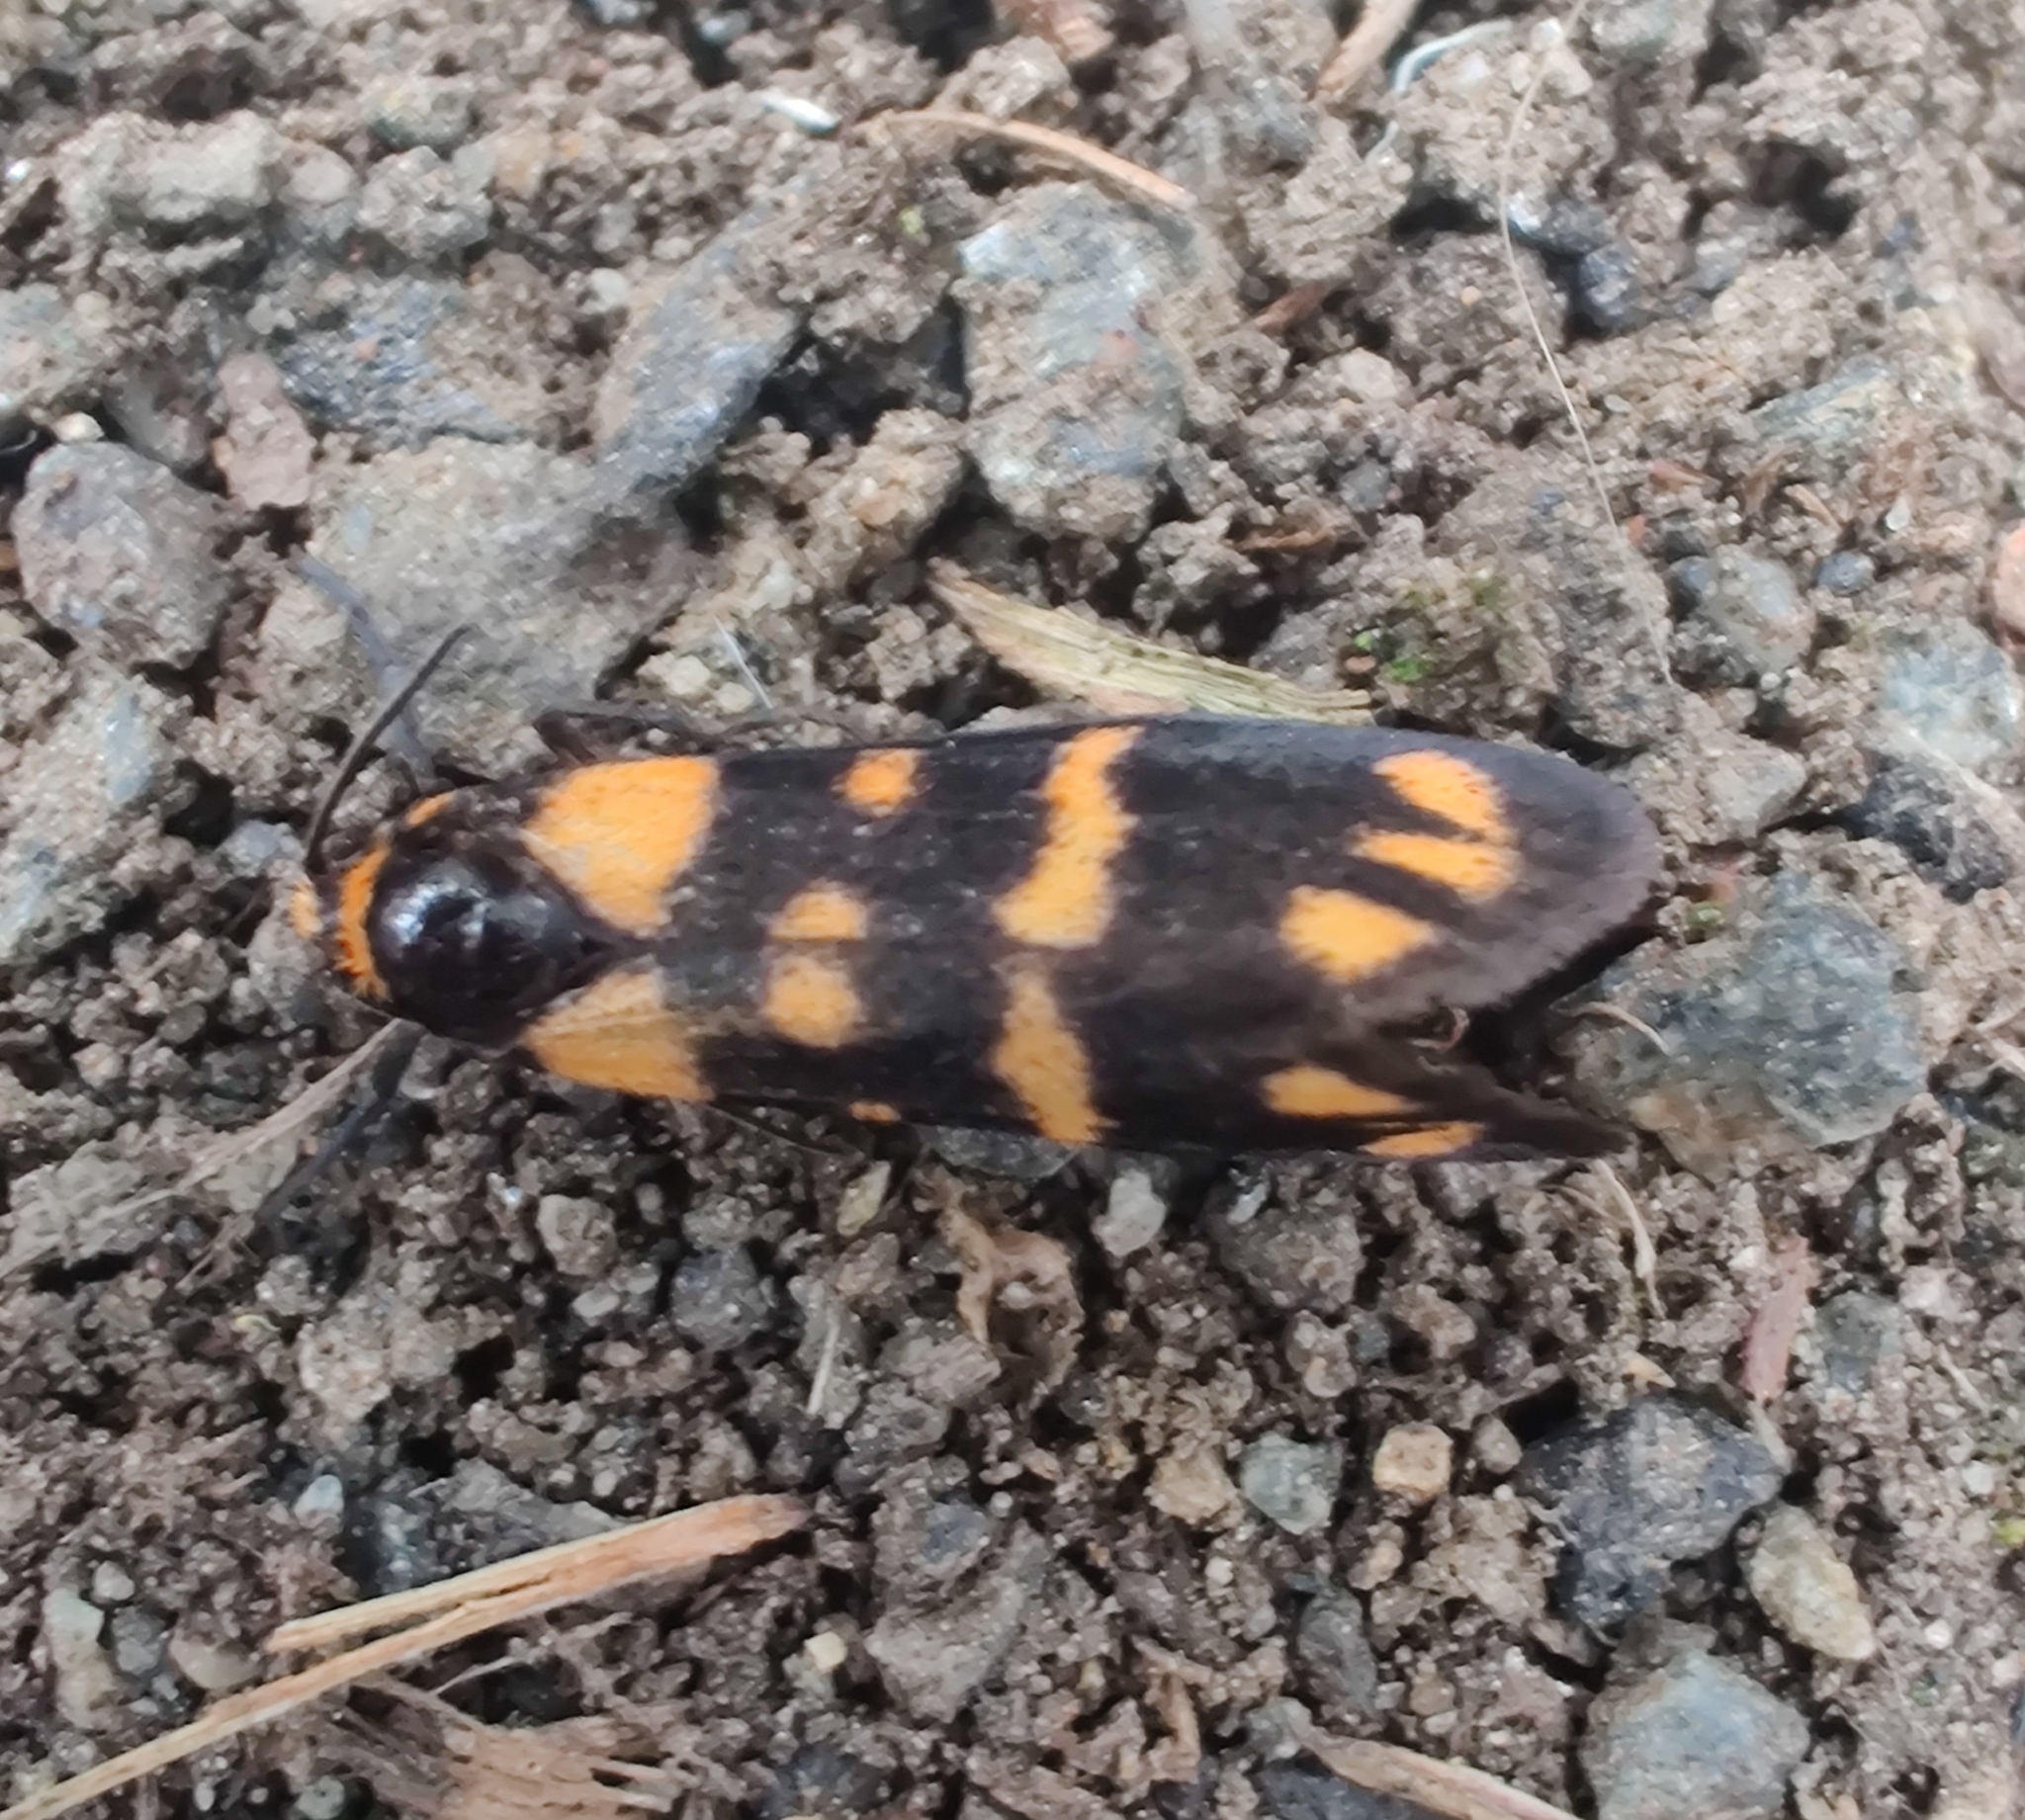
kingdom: Animalia
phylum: Arthropoda
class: Insecta
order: Lepidoptera
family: Erebidae
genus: Asura
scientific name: Asura terminalis
